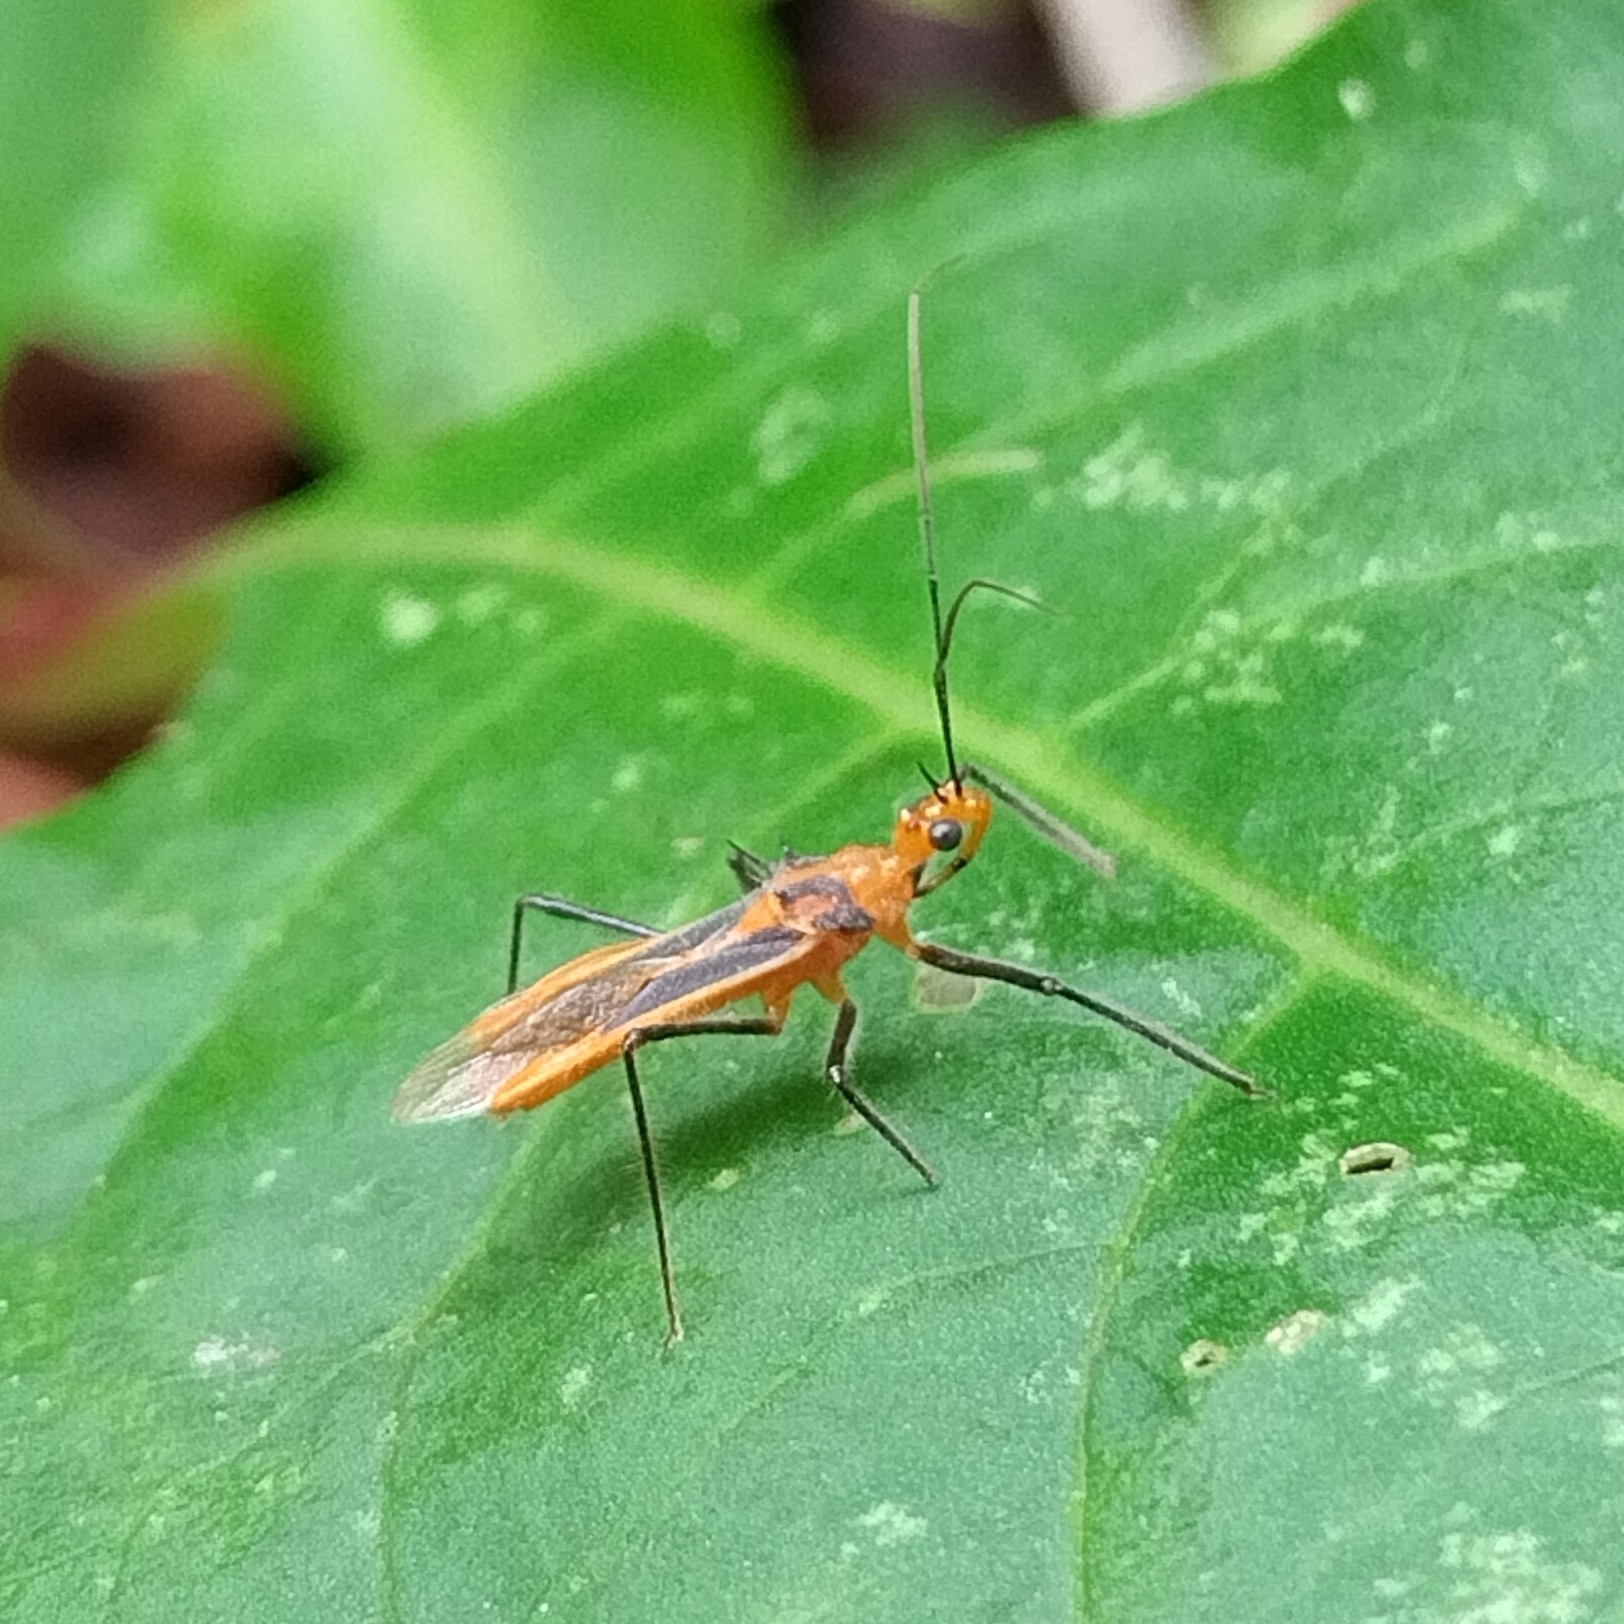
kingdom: Animalia
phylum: Arthropoda
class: Insecta
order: Hemiptera
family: Reduviidae
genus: Repipta
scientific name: Repipta taurus
